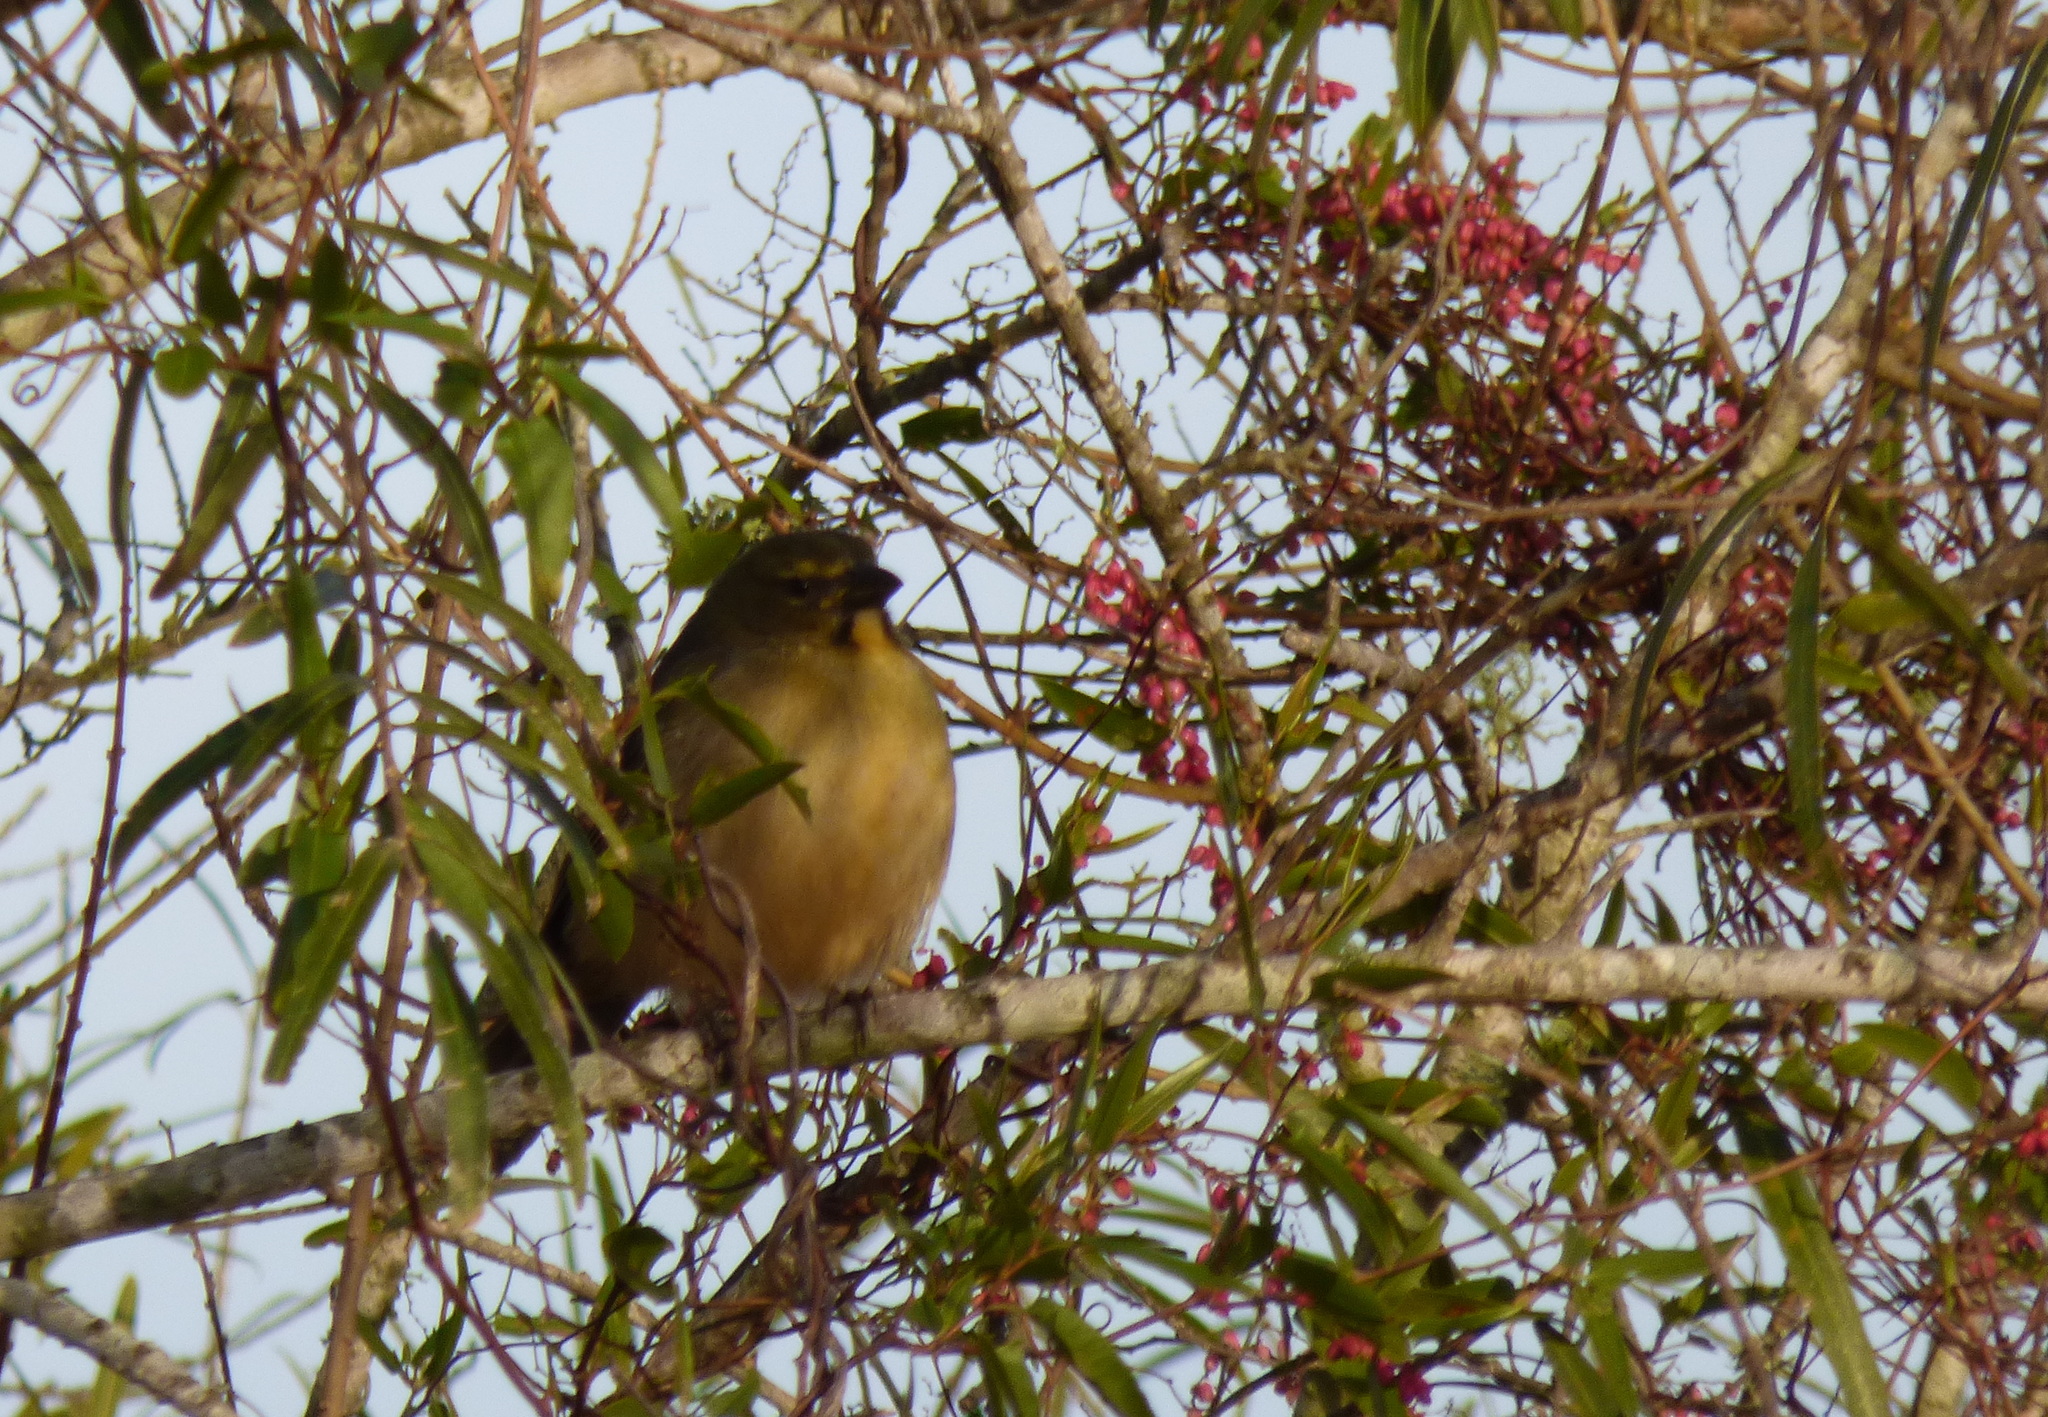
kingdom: Animalia
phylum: Chordata
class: Aves
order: Passeriformes
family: Thraupidae
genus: Saltator
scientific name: Saltator coerulescens
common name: Grayish saltator
